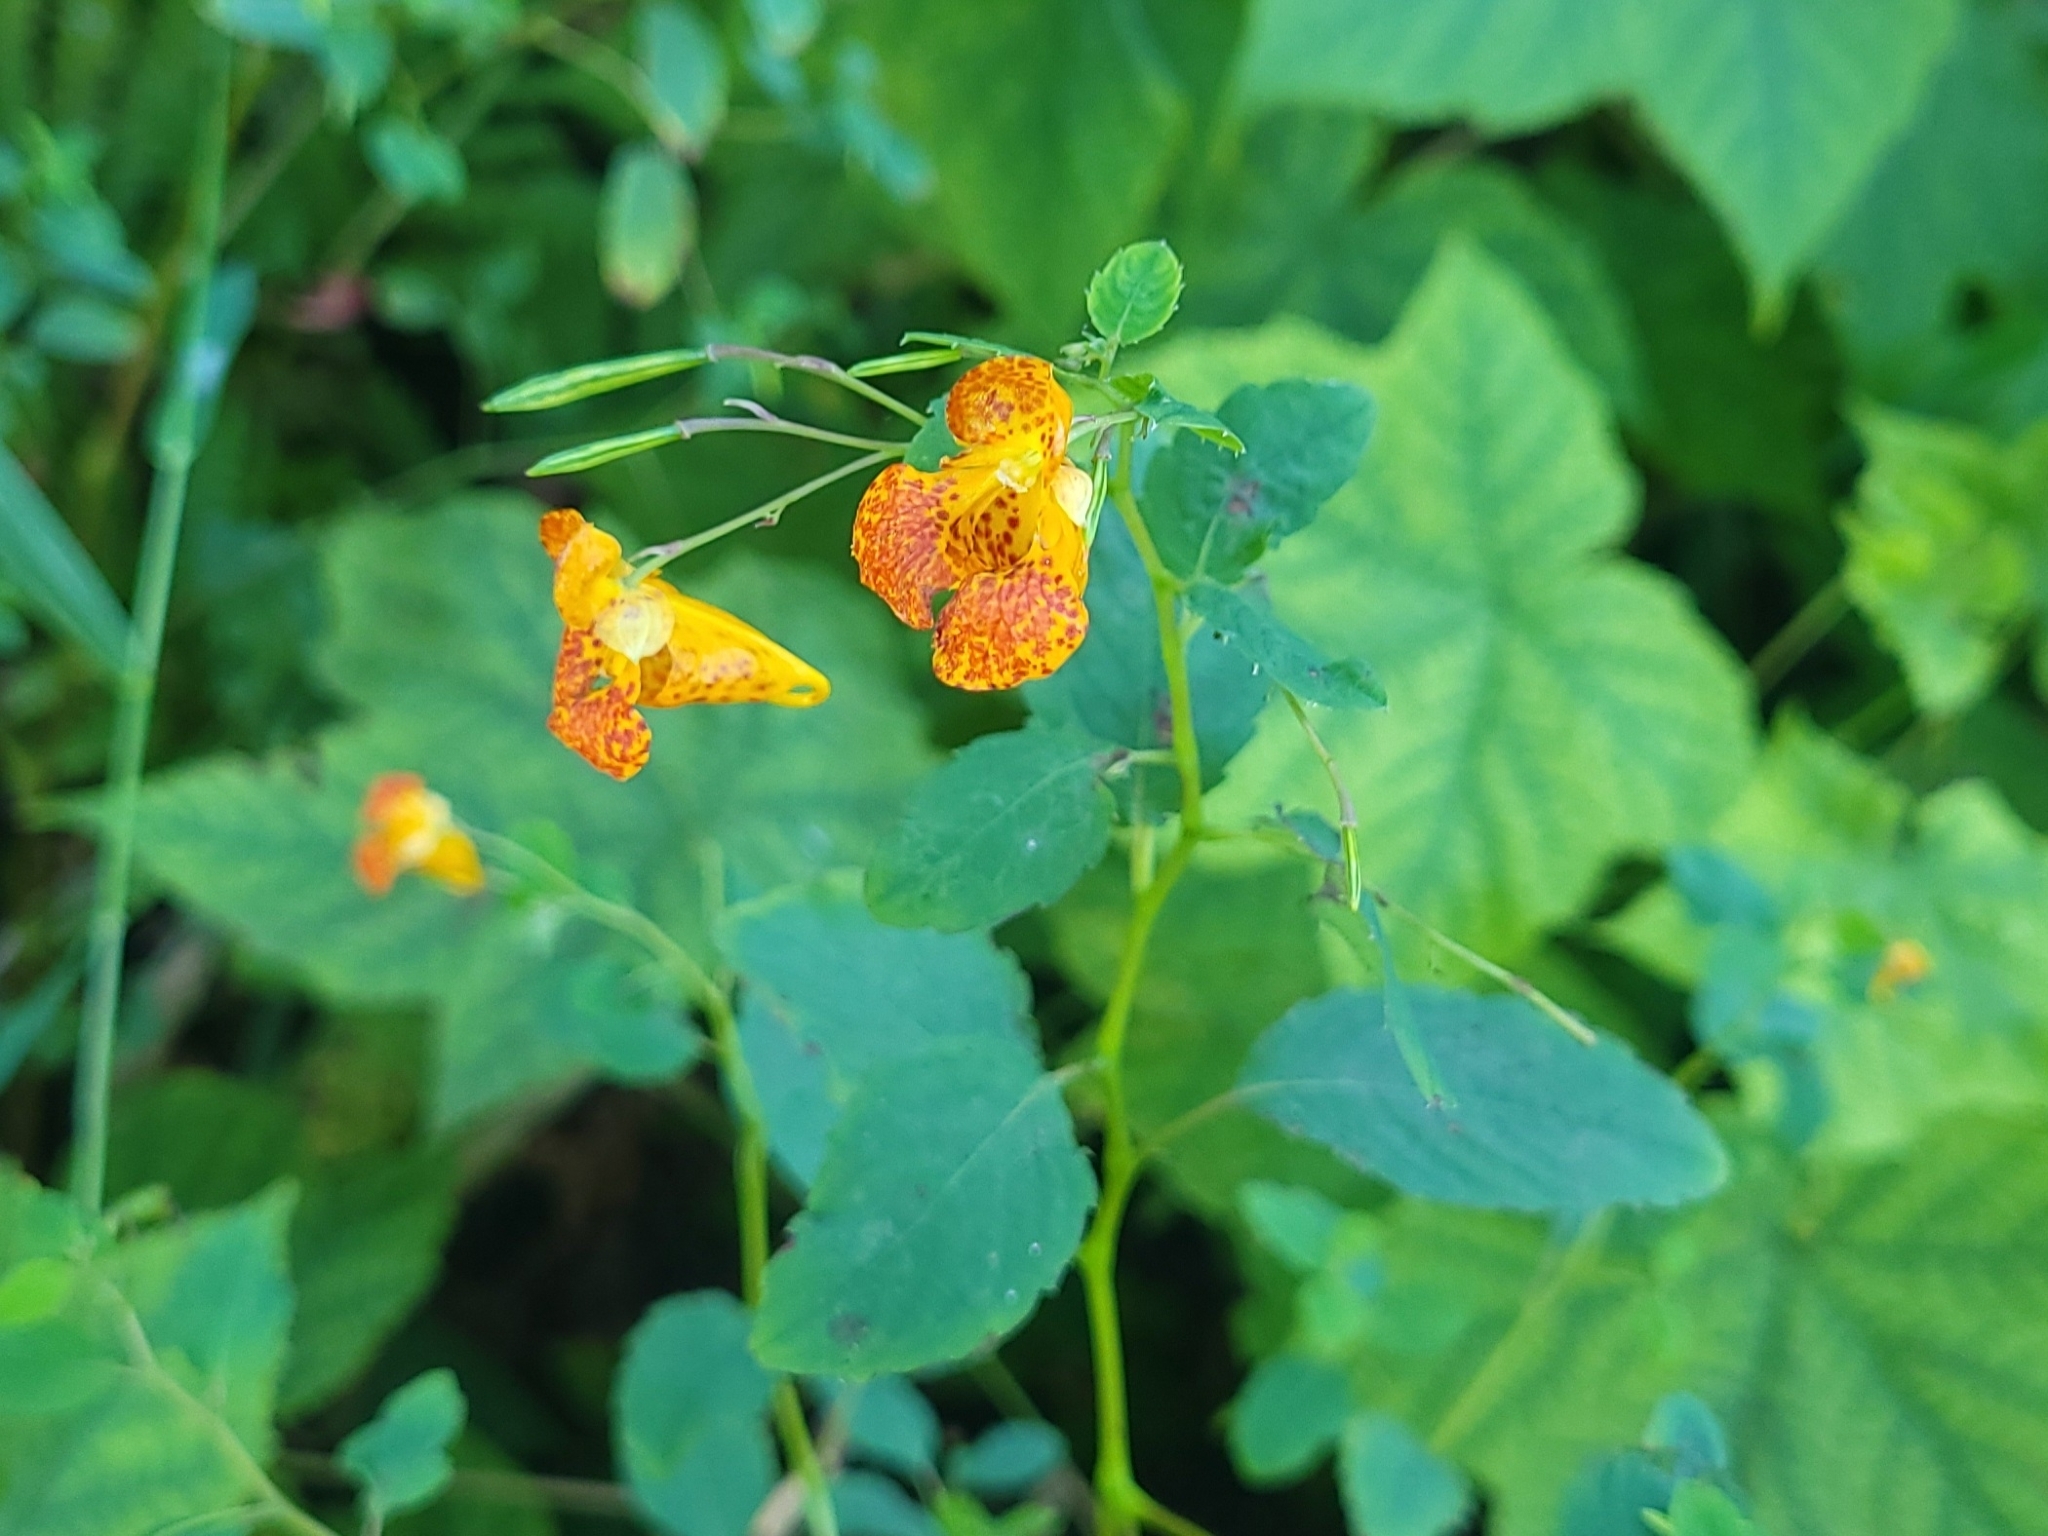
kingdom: Plantae
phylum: Tracheophyta
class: Magnoliopsida
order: Ericales
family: Balsaminaceae
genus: Impatiens
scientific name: Impatiens capensis
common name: Orange balsam
